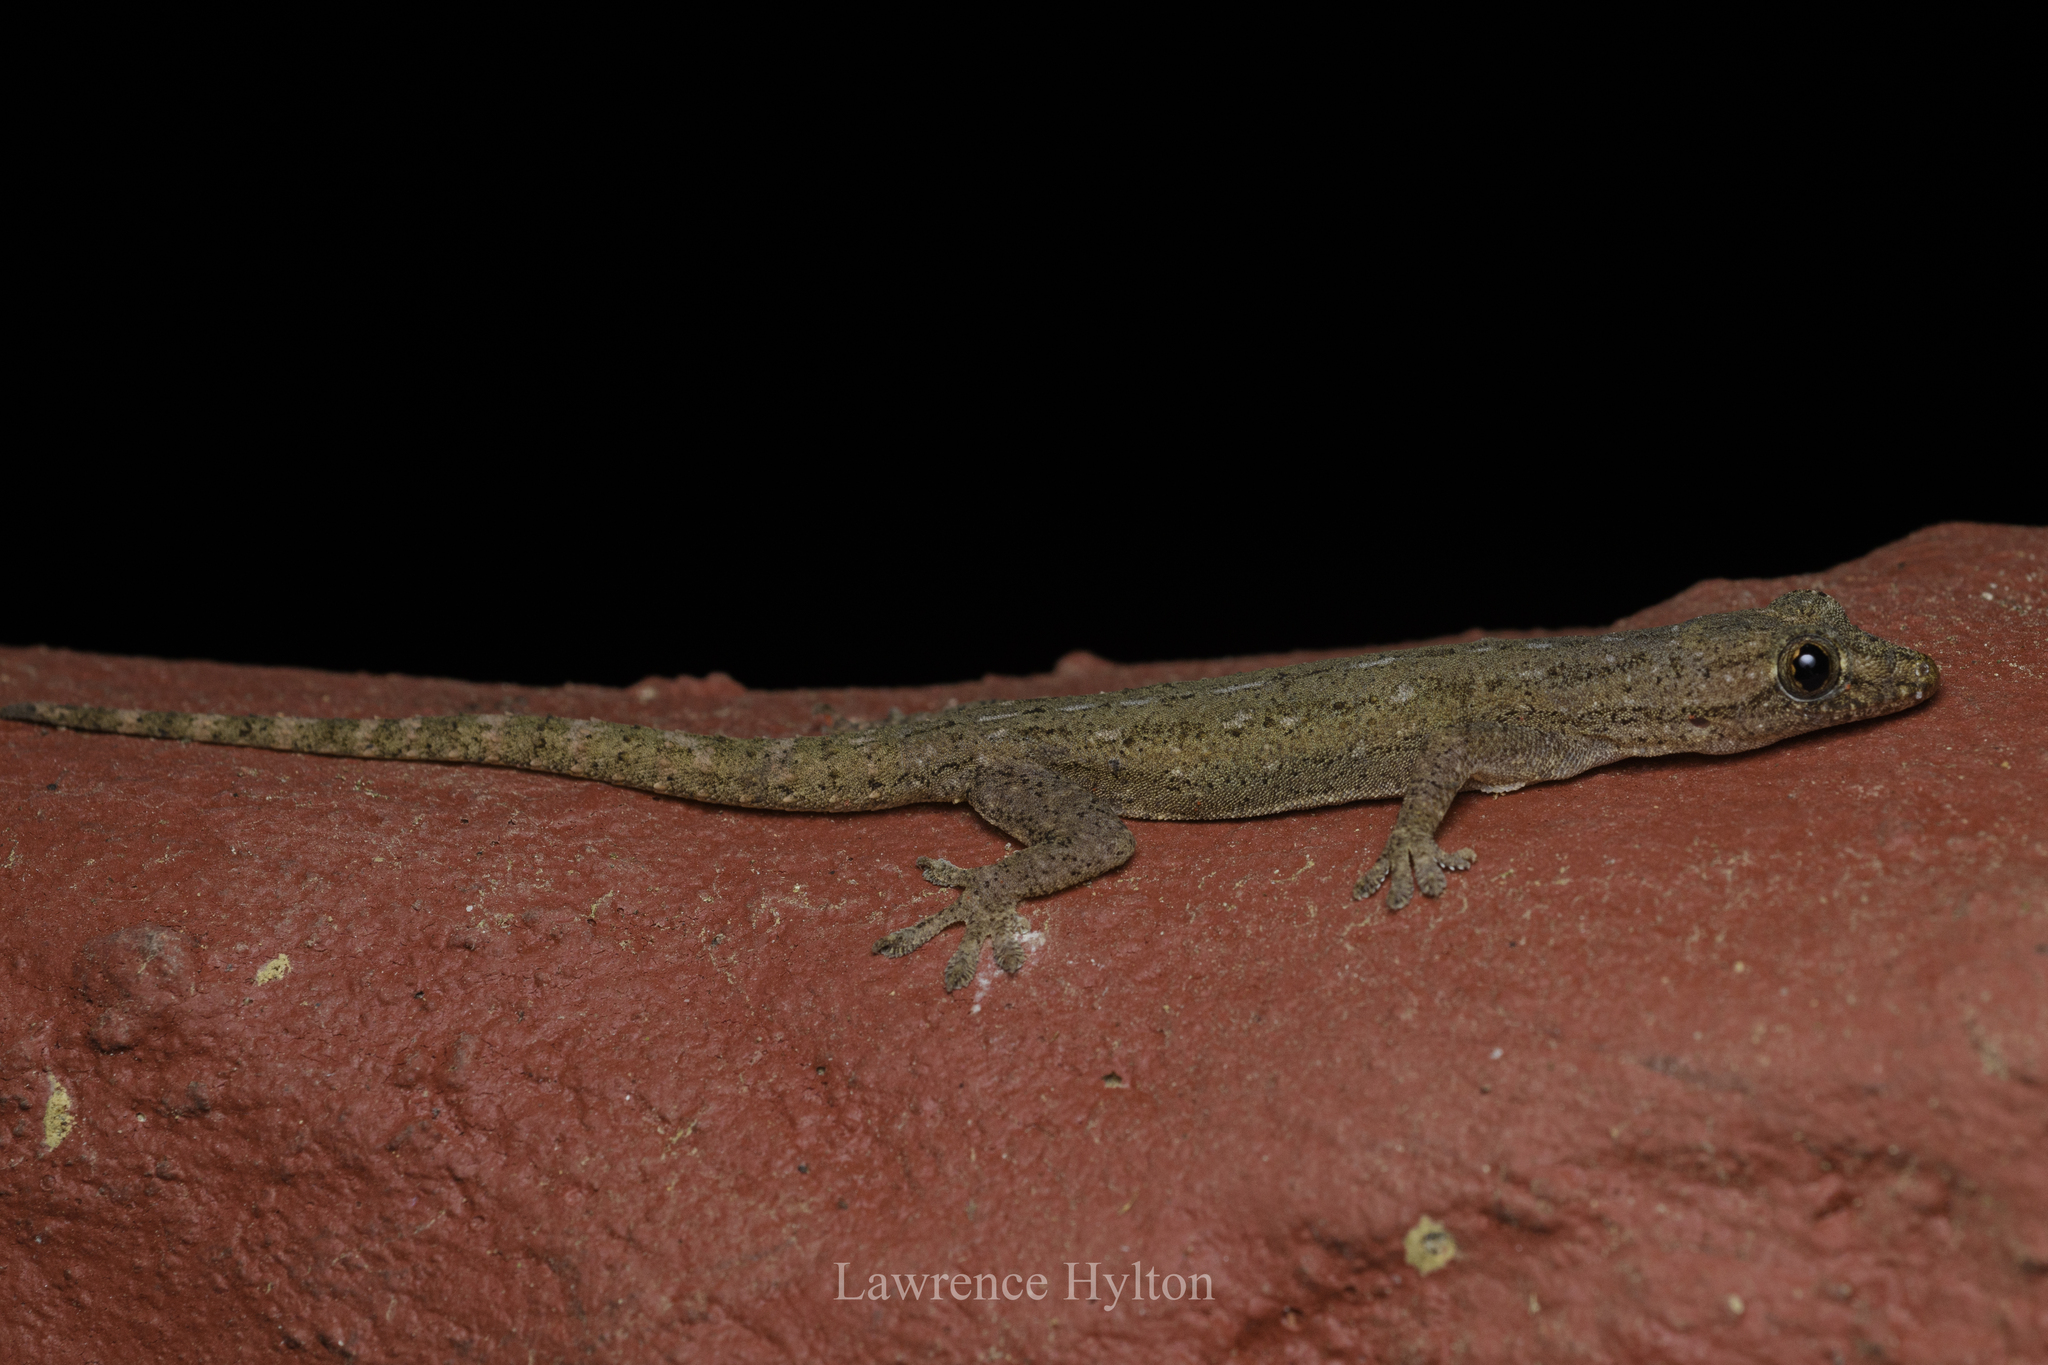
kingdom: Animalia
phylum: Chordata
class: Squamata
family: Gekkonidae
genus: Hemidactylus
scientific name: Hemidactylus frenatus
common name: Common house gecko
